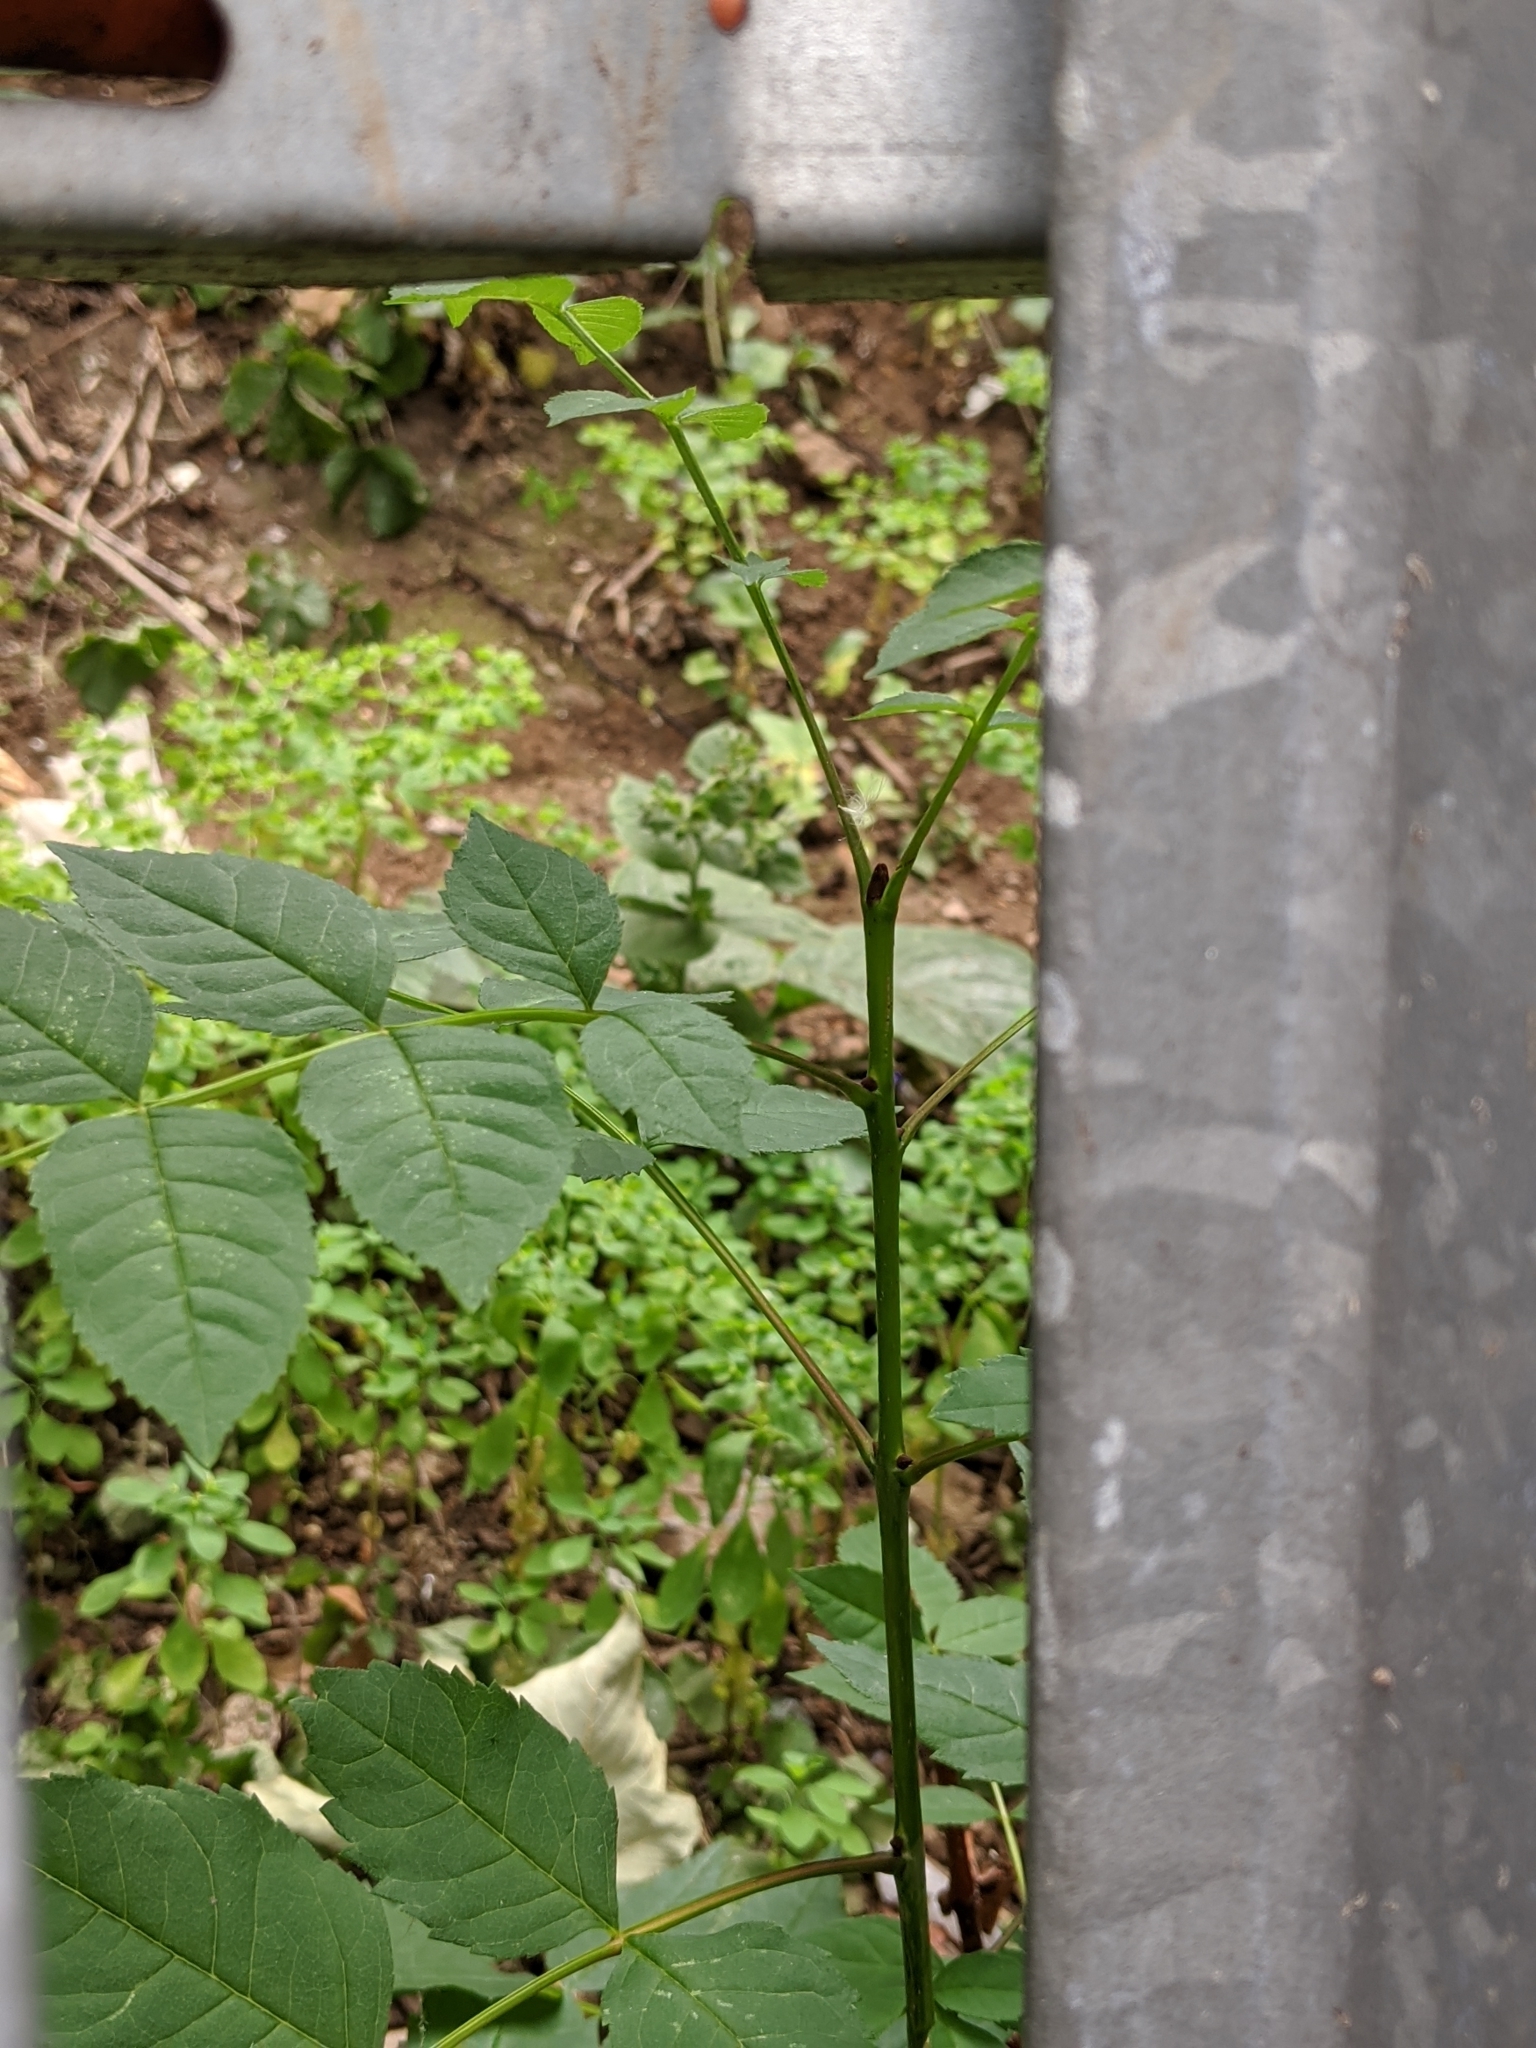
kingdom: Plantae
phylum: Tracheophyta
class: Magnoliopsida
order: Lamiales
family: Oleaceae
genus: Fraxinus
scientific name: Fraxinus excelsior
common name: European ash
